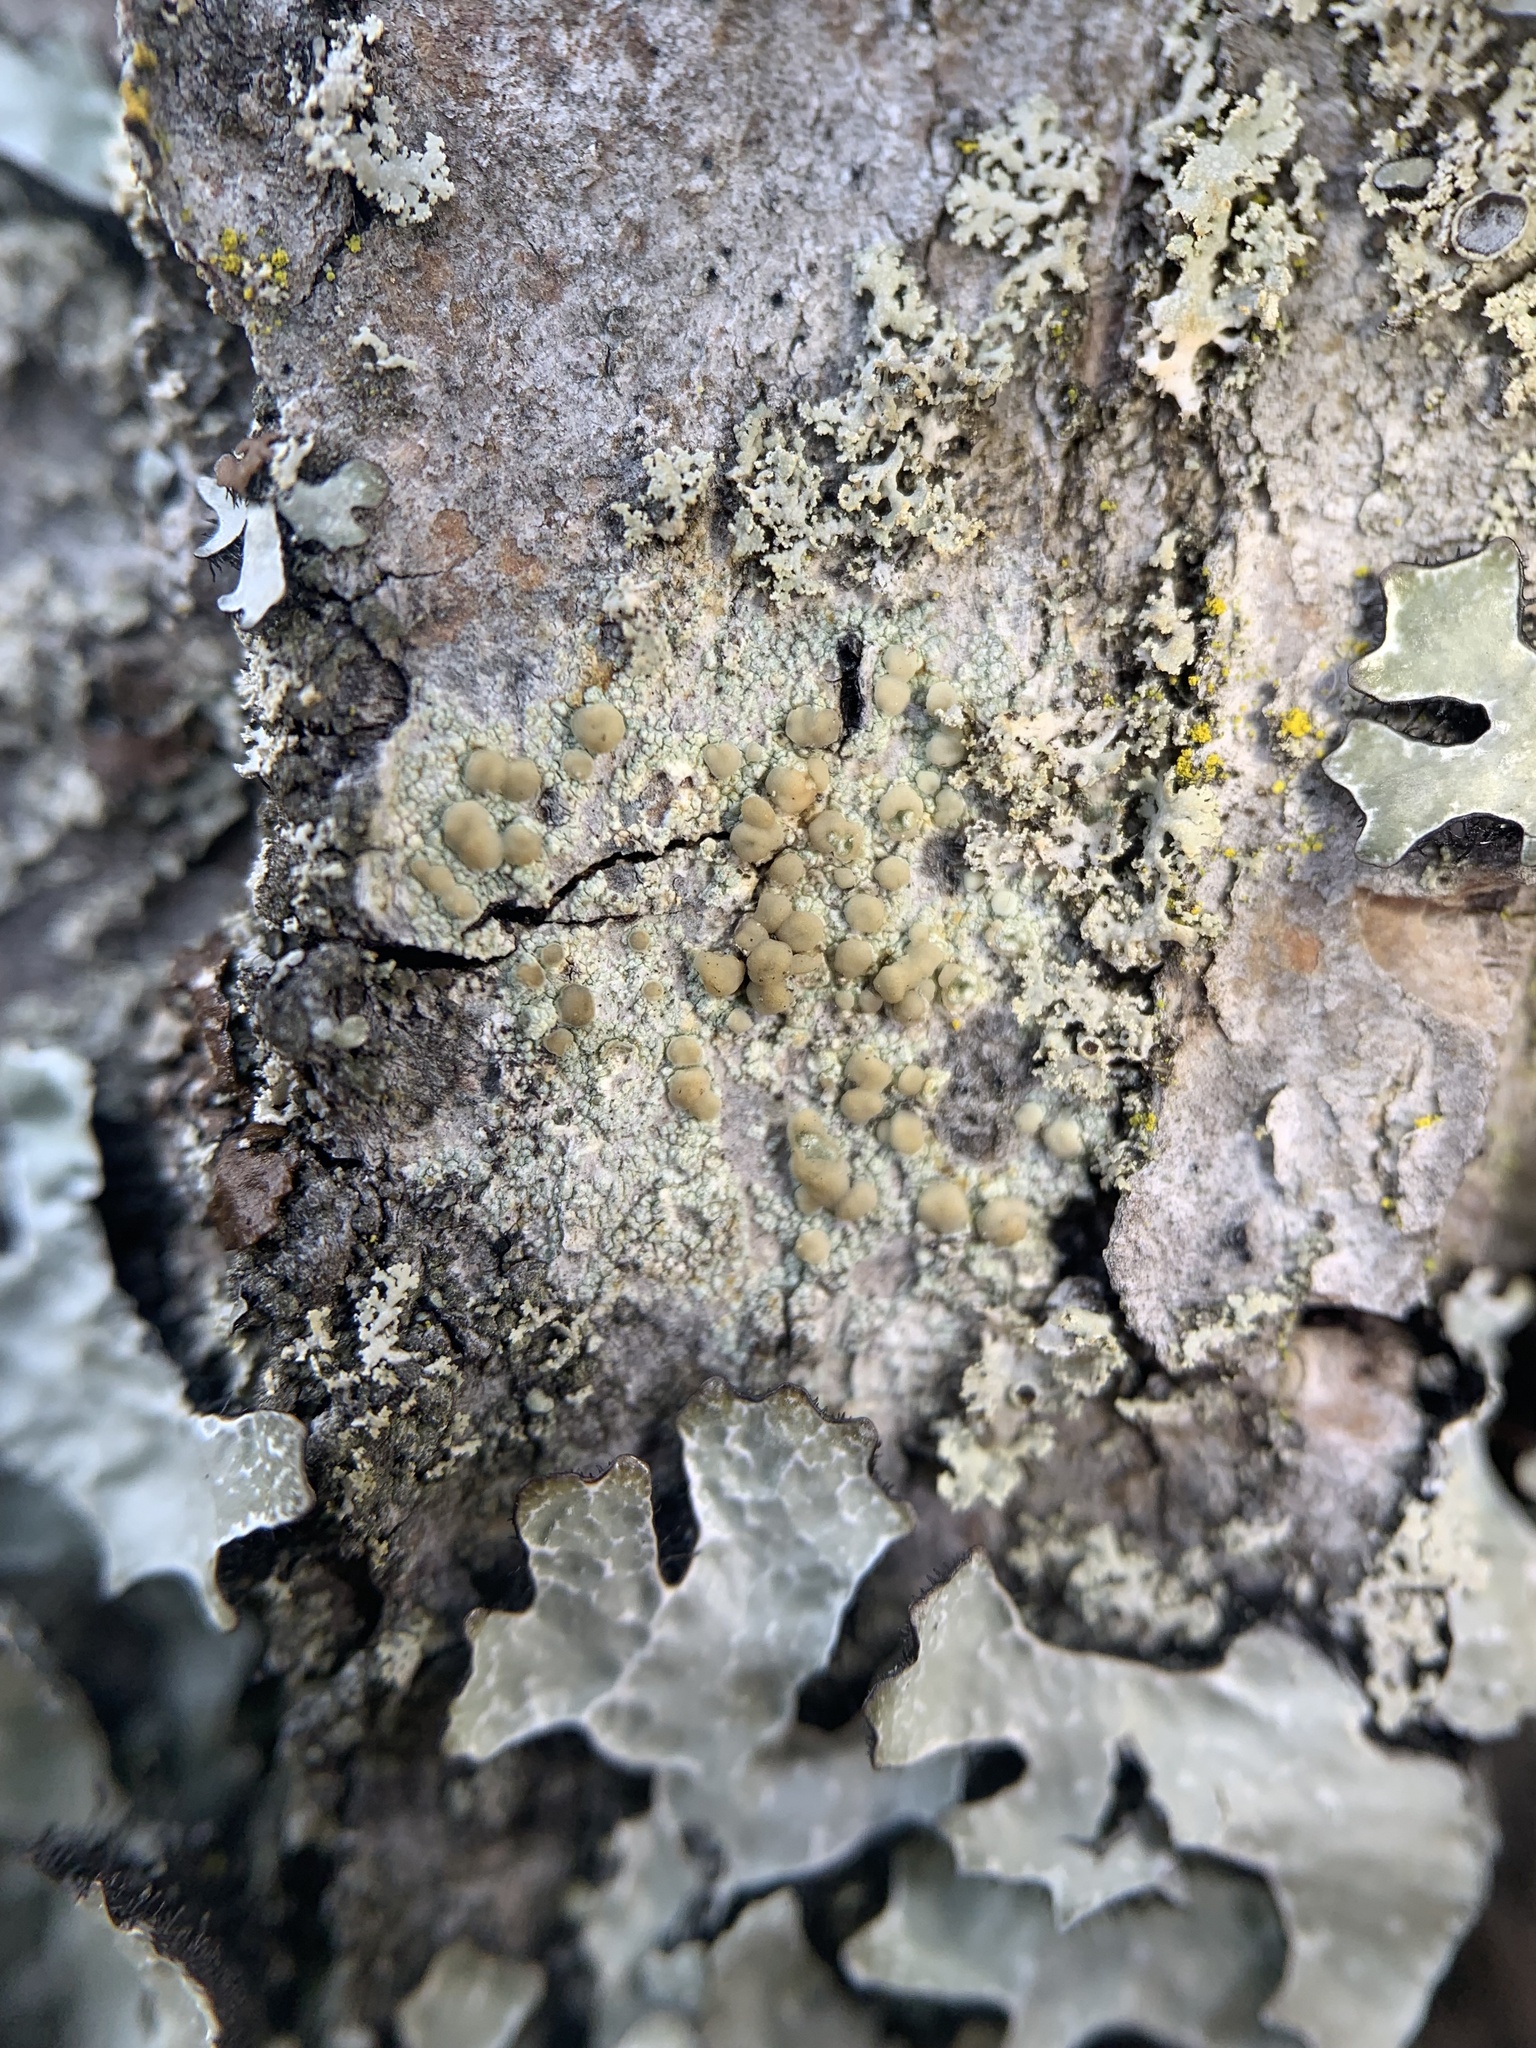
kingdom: Fungi
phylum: Ascomycota
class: Lecanoromycetes
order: Lecanorales
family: Lecanoraceae
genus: Lecanora
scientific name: Lecanora symmicta
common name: Fused rim lichen
